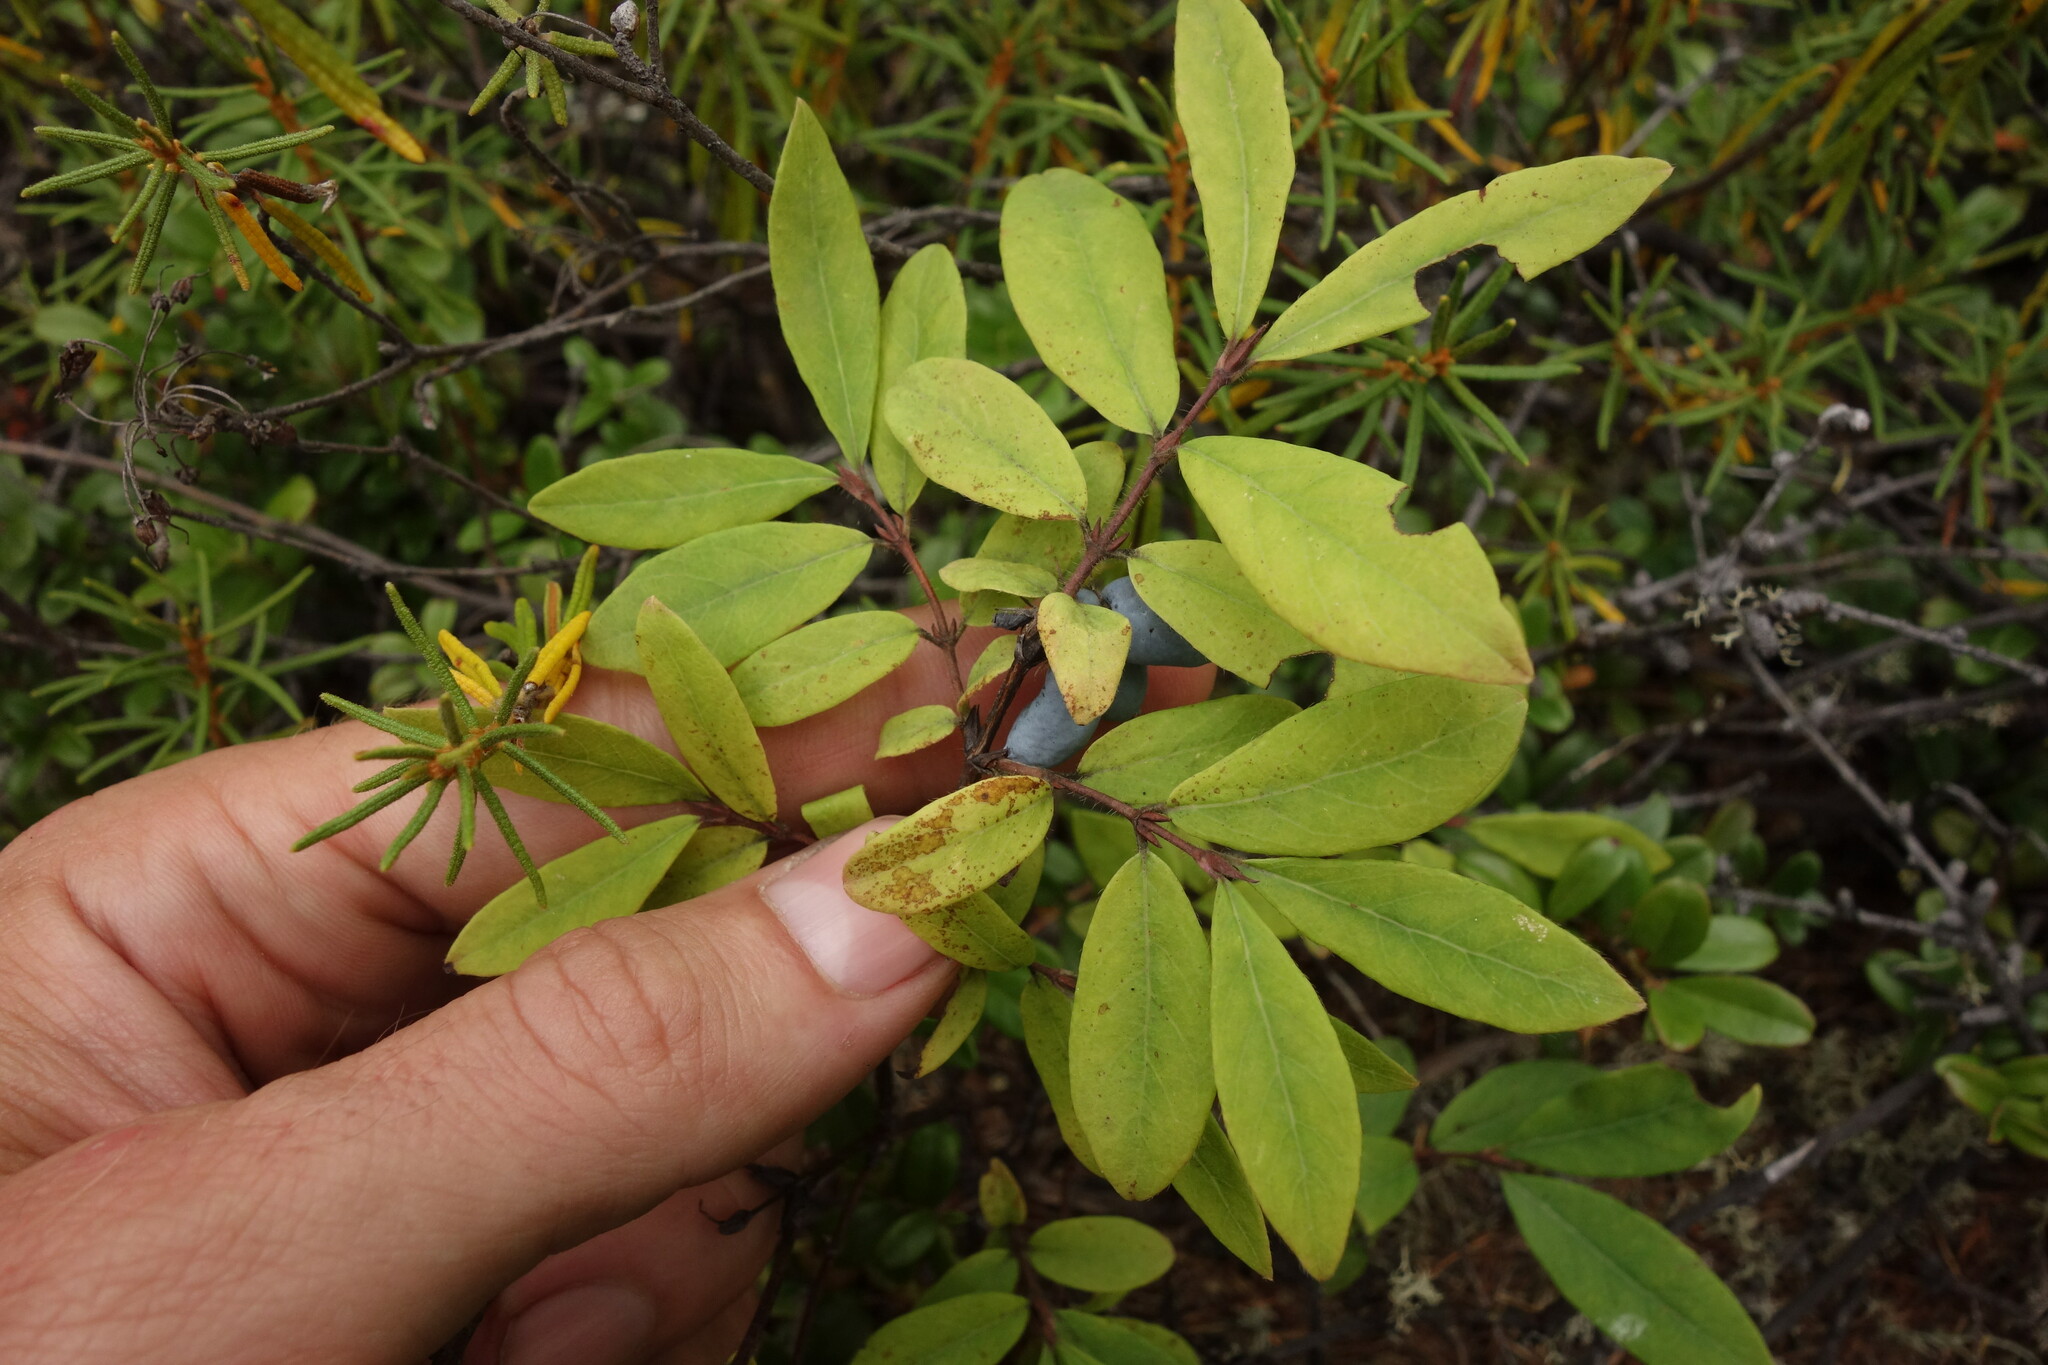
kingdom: Plantae
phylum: Tracheophyta
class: Magnoliopsida
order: Dipsacales
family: Caprifoliaceae
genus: Lonicera
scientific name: Lonicera caerulea
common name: Blue honeysuckle
